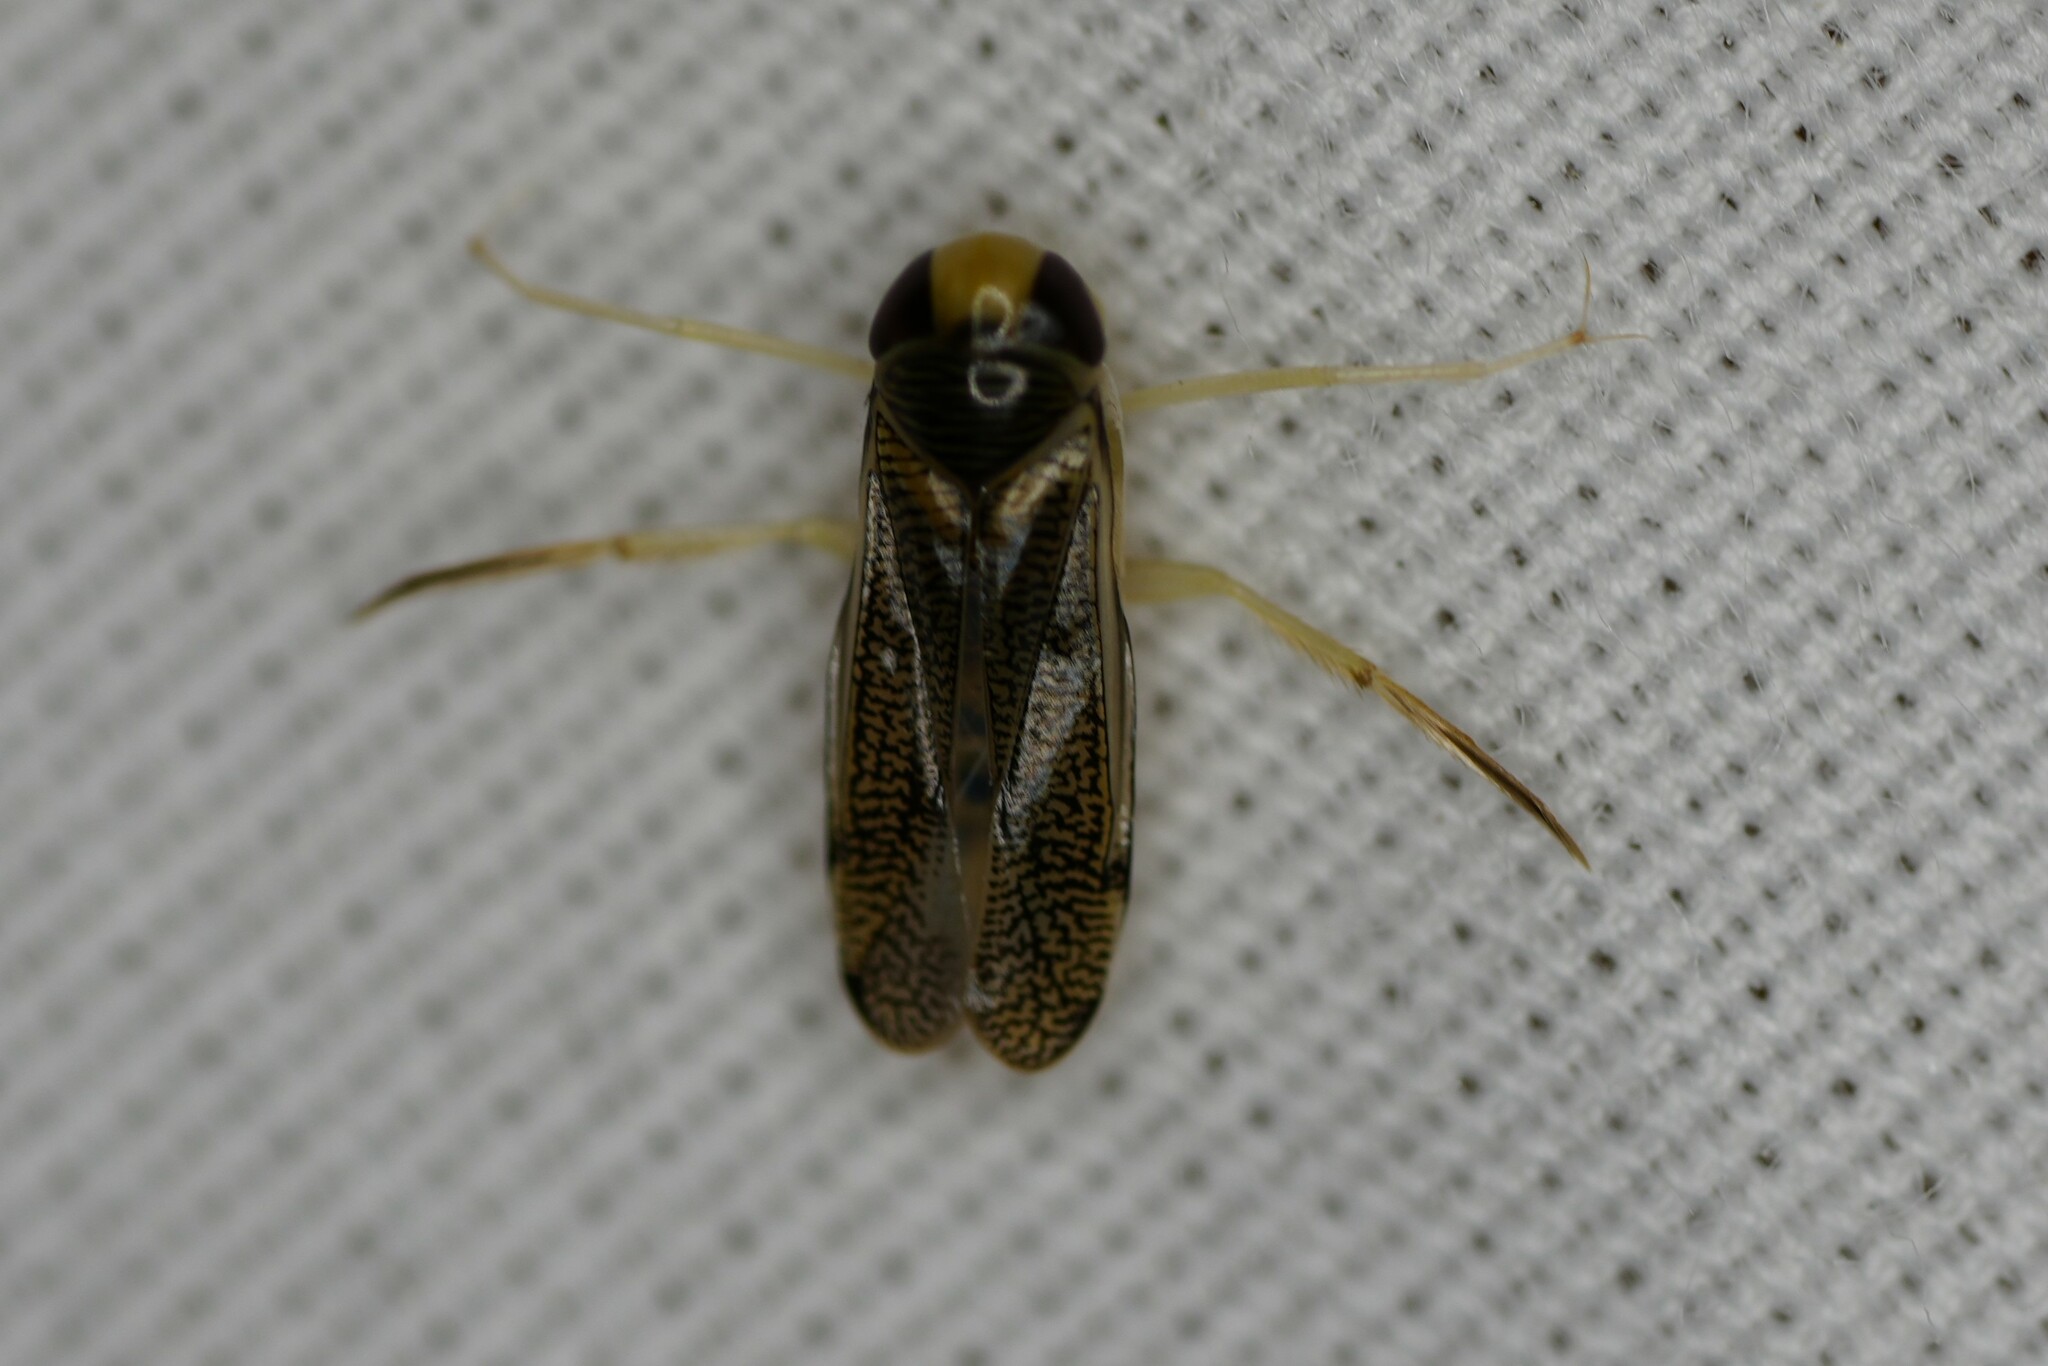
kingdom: Animalia
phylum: Arthropoda
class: Insecta
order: Hemiptera
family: Corixidae
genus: Trichocorixa
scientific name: Trichocorixa
